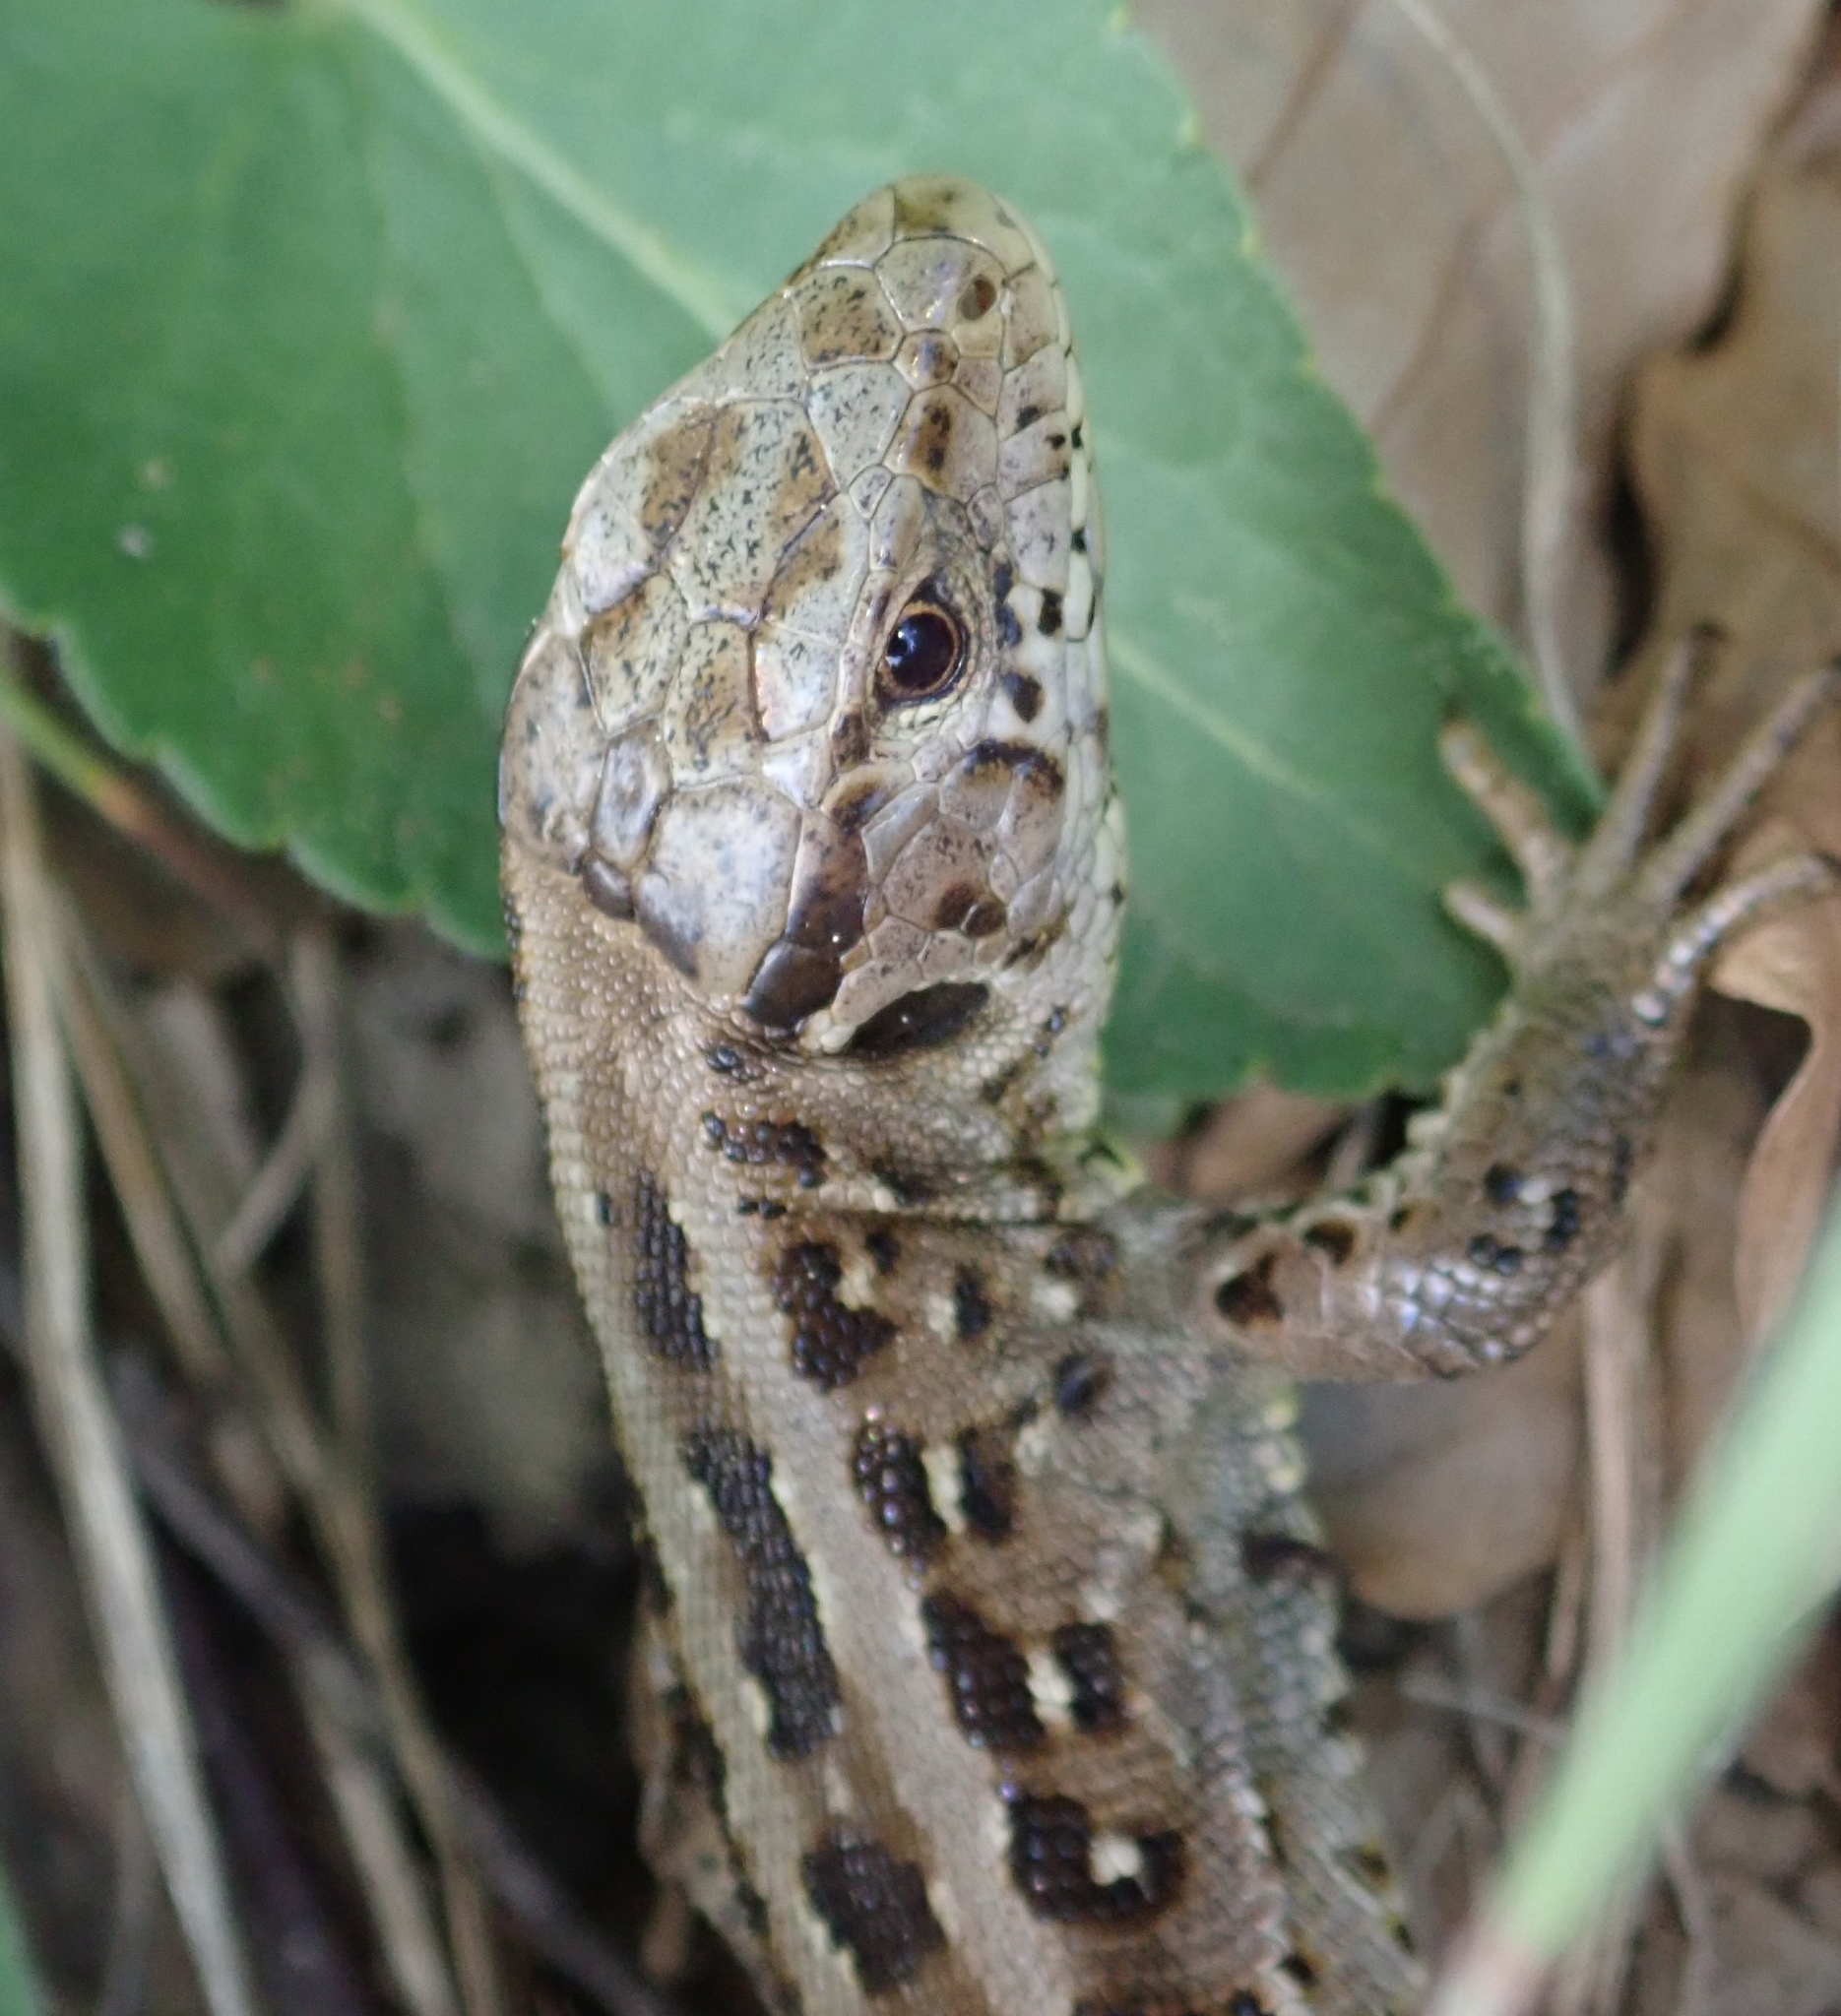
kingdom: Animalia
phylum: Chordata
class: Squamata
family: Lacertidae
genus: Lacerta
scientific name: Lacerta agilis
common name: Sand lizard
